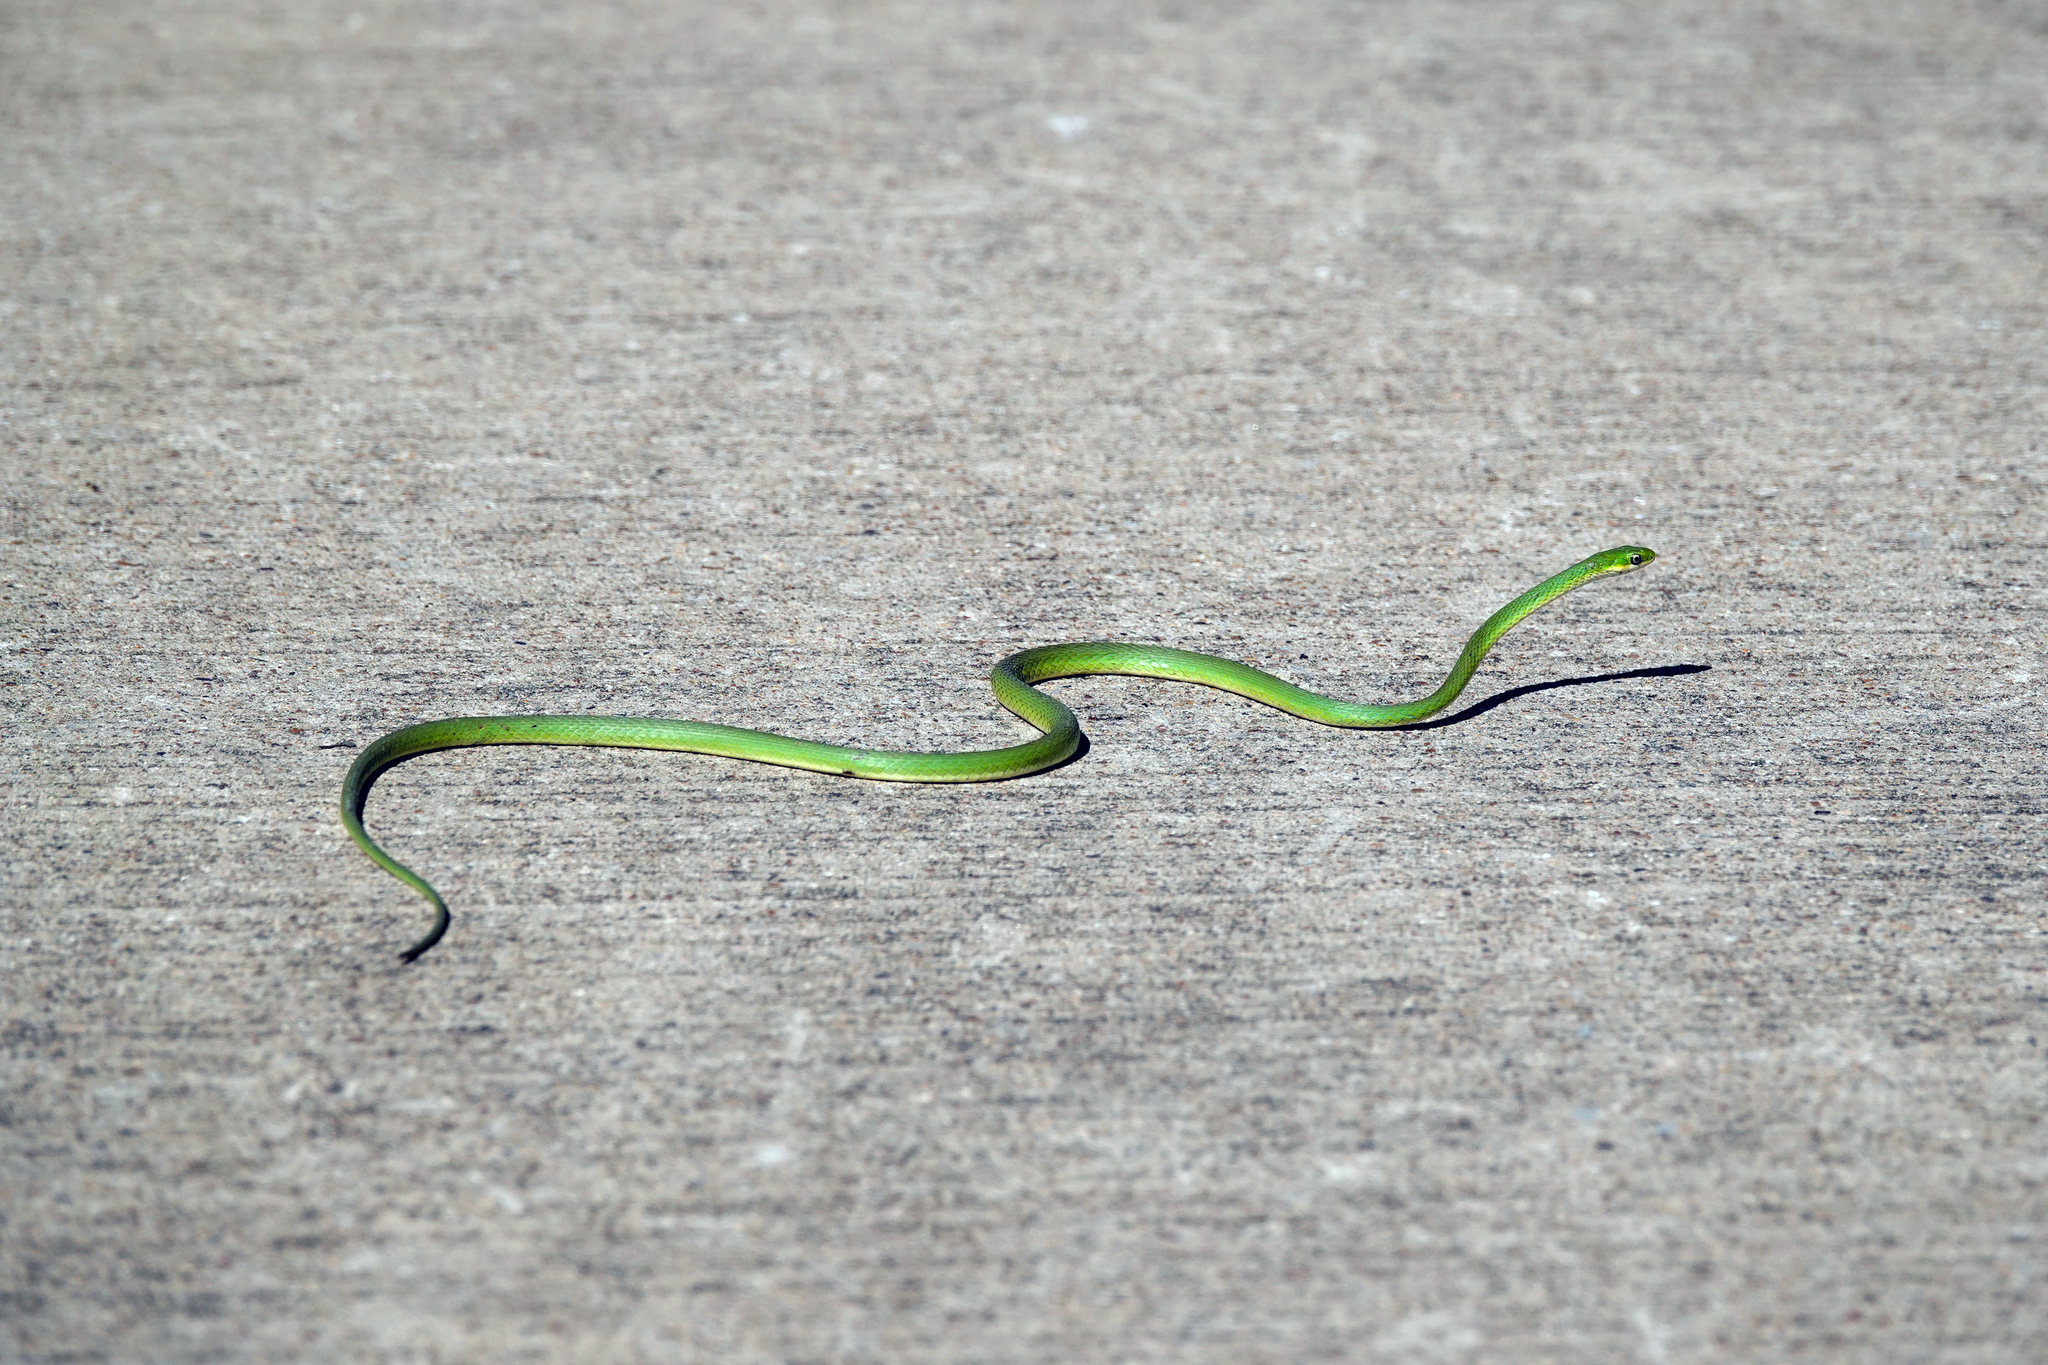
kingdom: Animalia
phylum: Chordata
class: Squamata
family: Colubridae
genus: Opheodrys
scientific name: Opheodrys aestivus
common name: Rough greensnake
